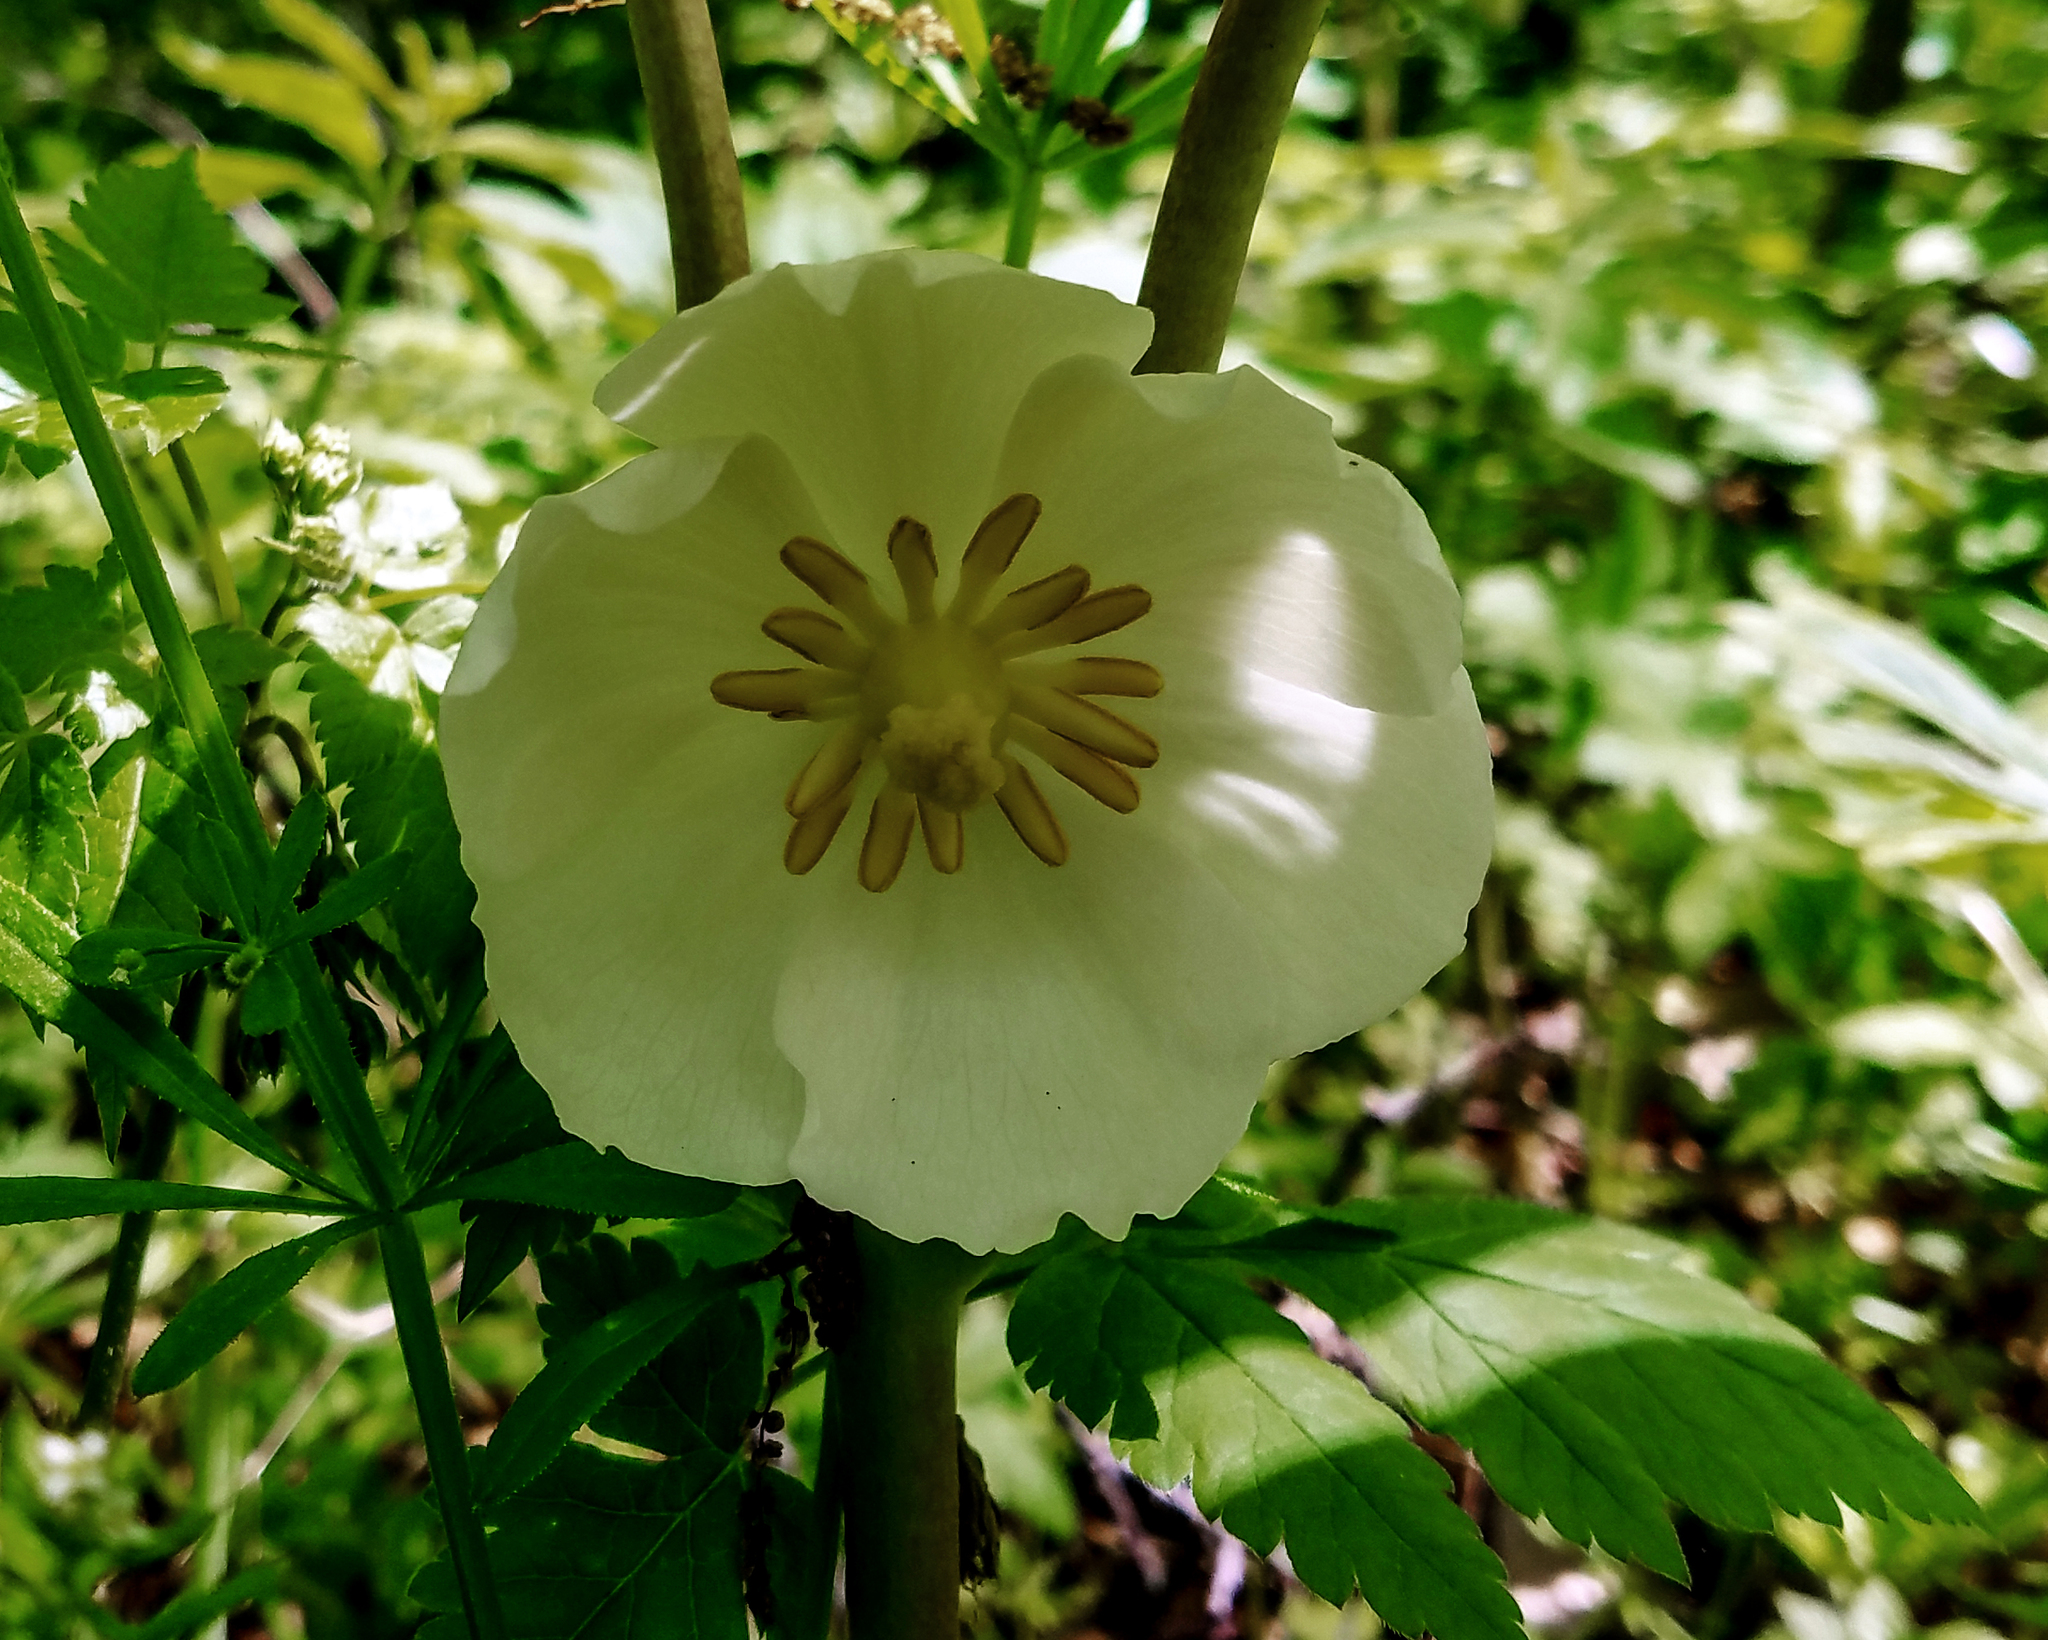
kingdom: Plantae
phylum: Tracheophyta
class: Magnoliopsida
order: Ranunculales
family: Berberidaceae
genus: Podophyllum
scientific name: Podophyllum peltatum
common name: Wild mandrake
